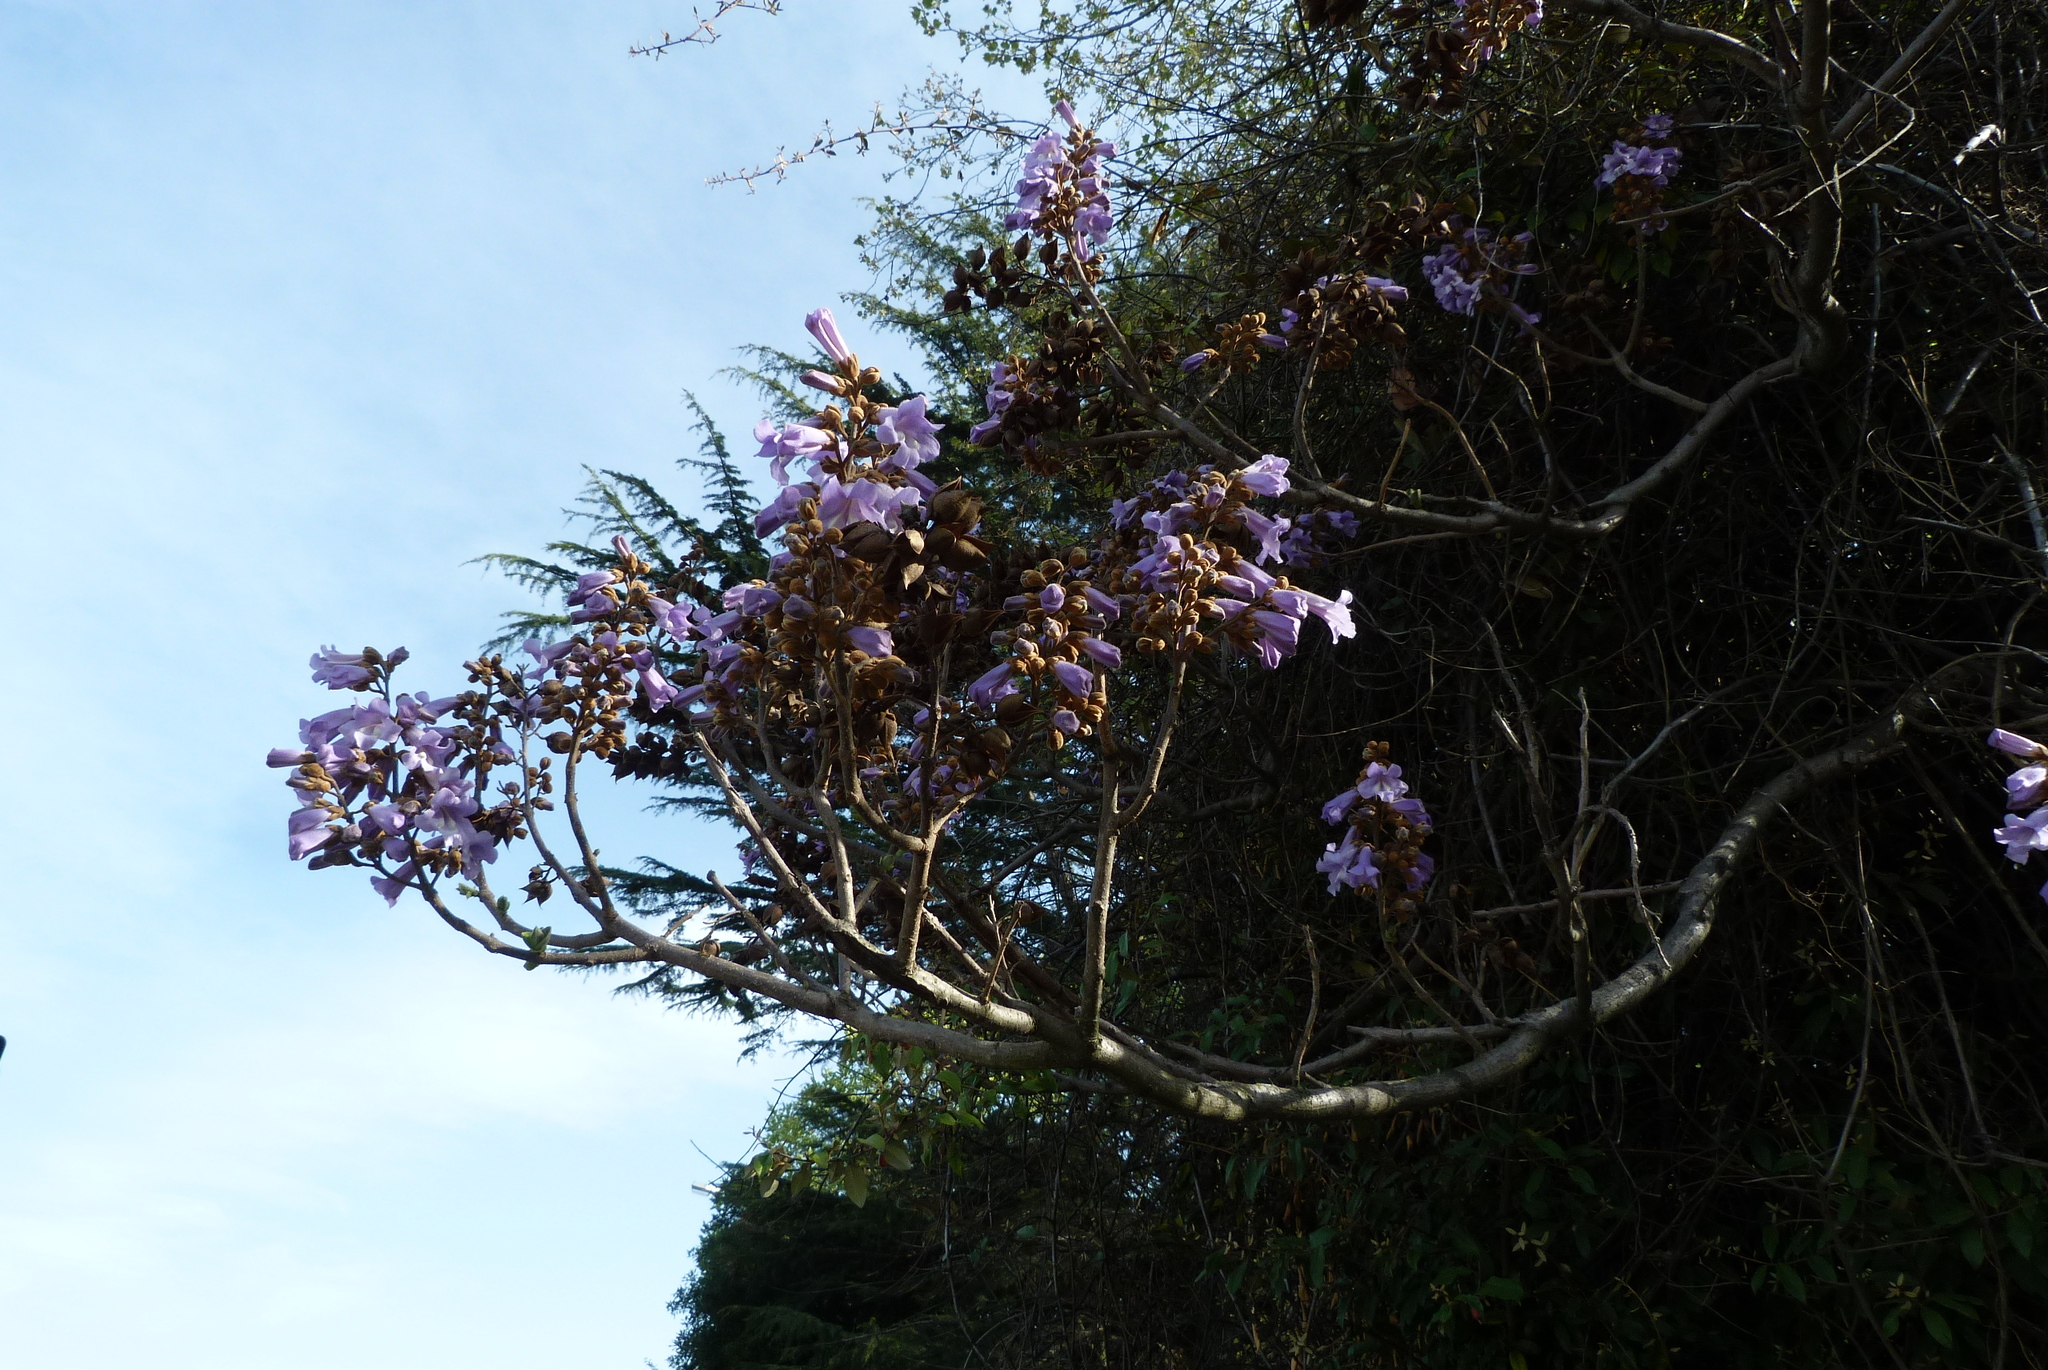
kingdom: Plantae
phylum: Tracheophyta
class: Magnoliopsida
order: Lamiales
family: Paulowniaceae
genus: Paulownia
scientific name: Paulownia tomentosa
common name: Foxglove-tree
